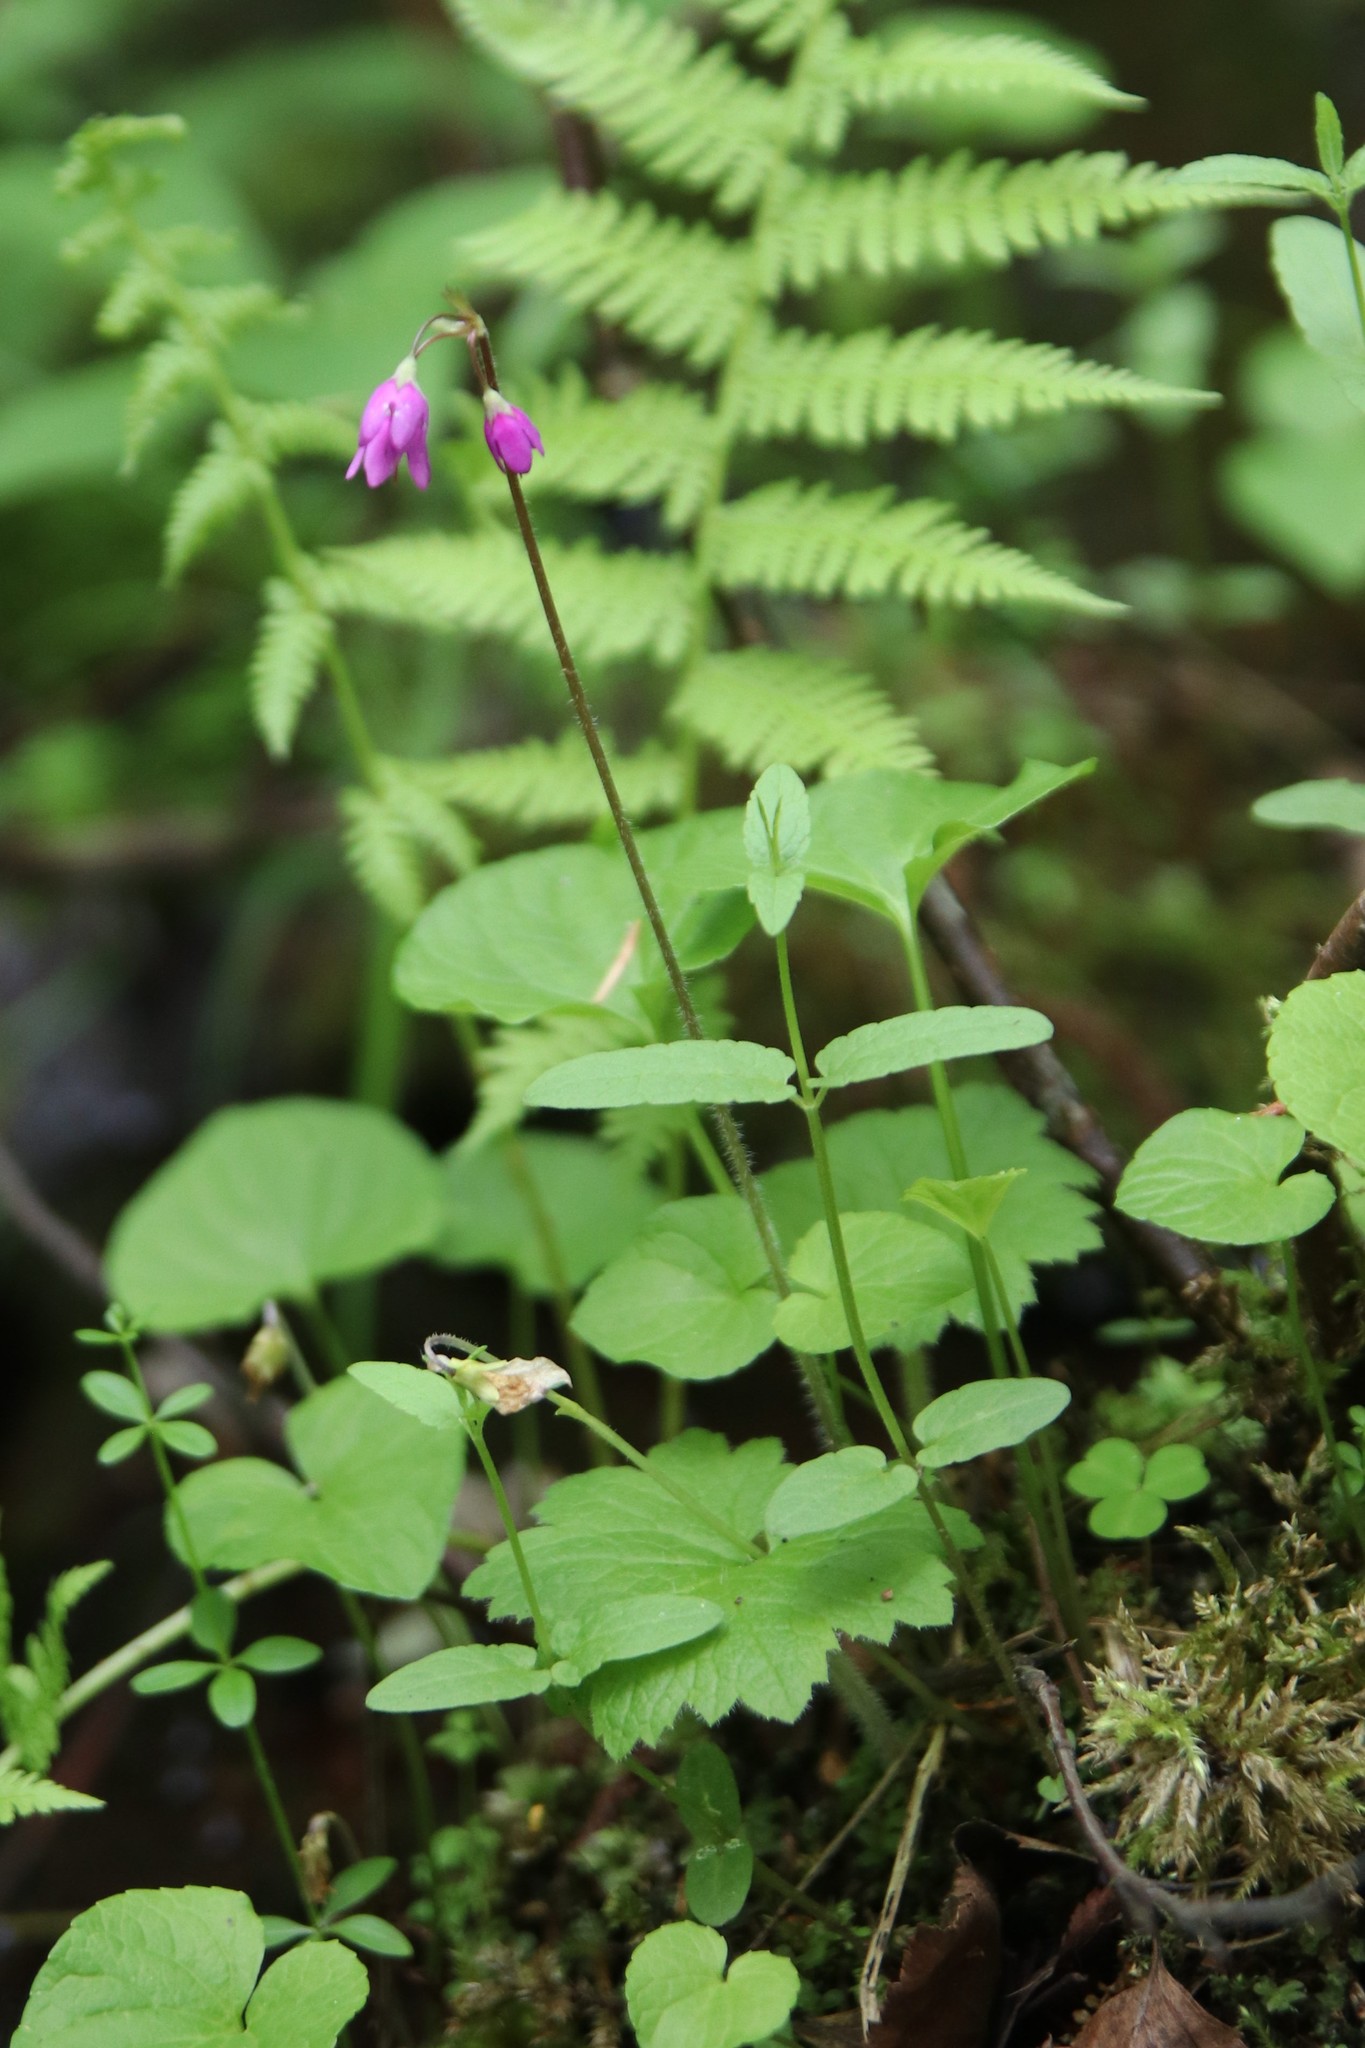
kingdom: Plantae
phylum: Tracheophyta
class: Magnoliopsida
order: Ericales
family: Primulaceae
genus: Primula
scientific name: Primula matthioli
